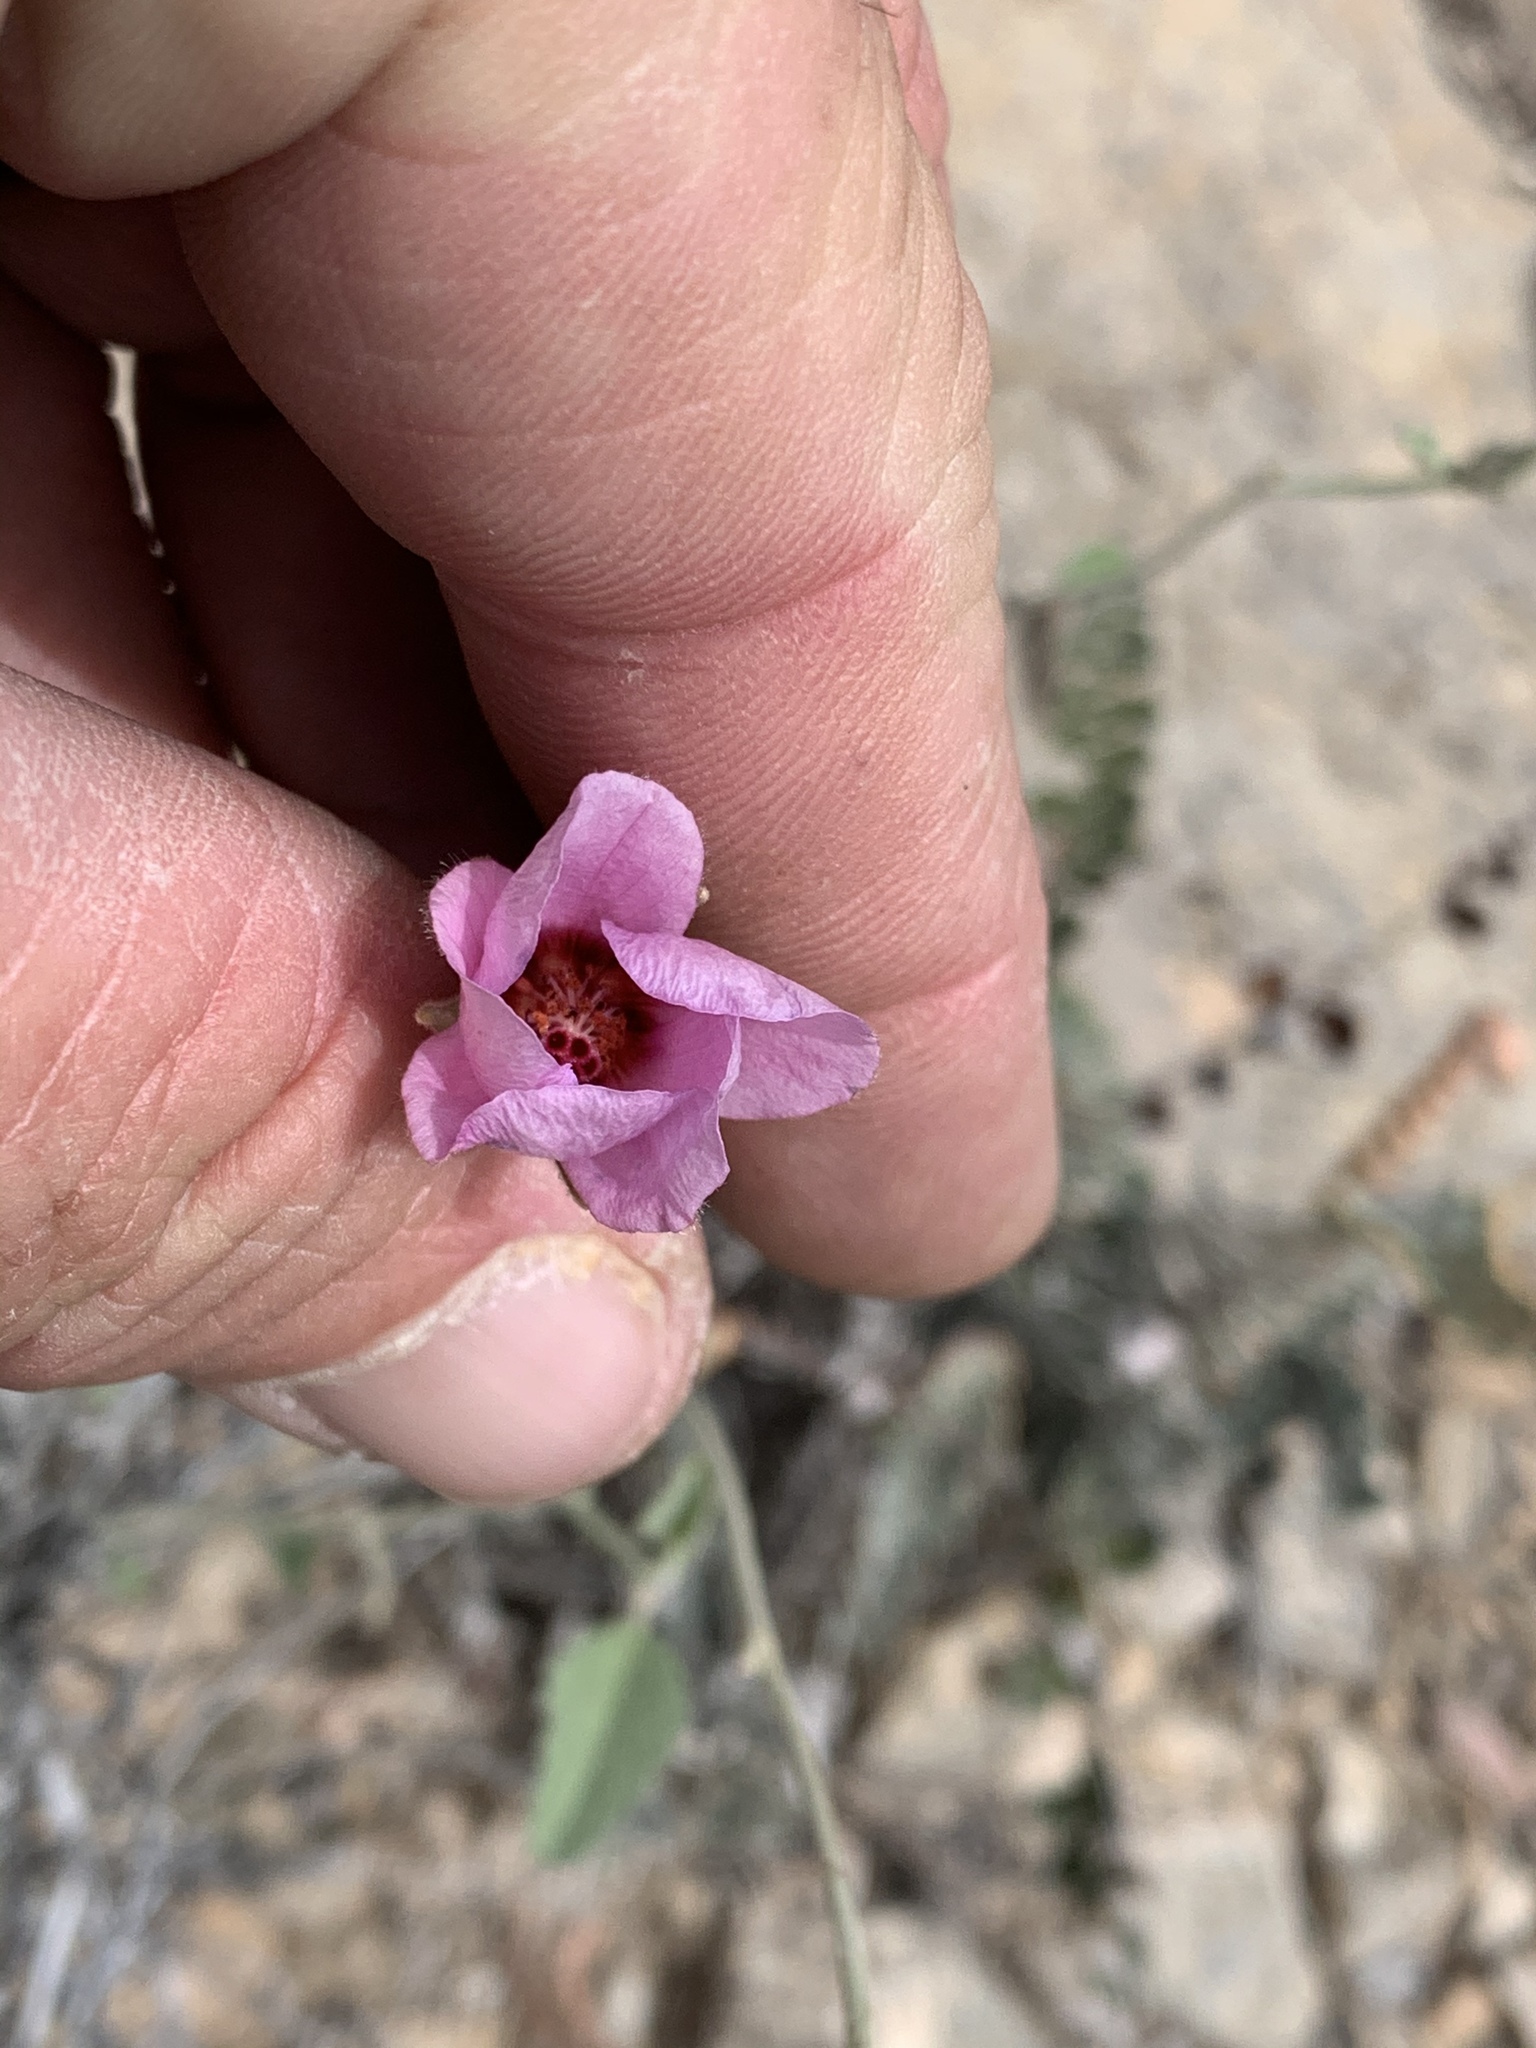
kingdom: Plantae
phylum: Tracheophyta
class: Magnoliopsida
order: Malvales
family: Malvaceae
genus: Hibiscus
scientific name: Hibiscus denudatus
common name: Paleface
